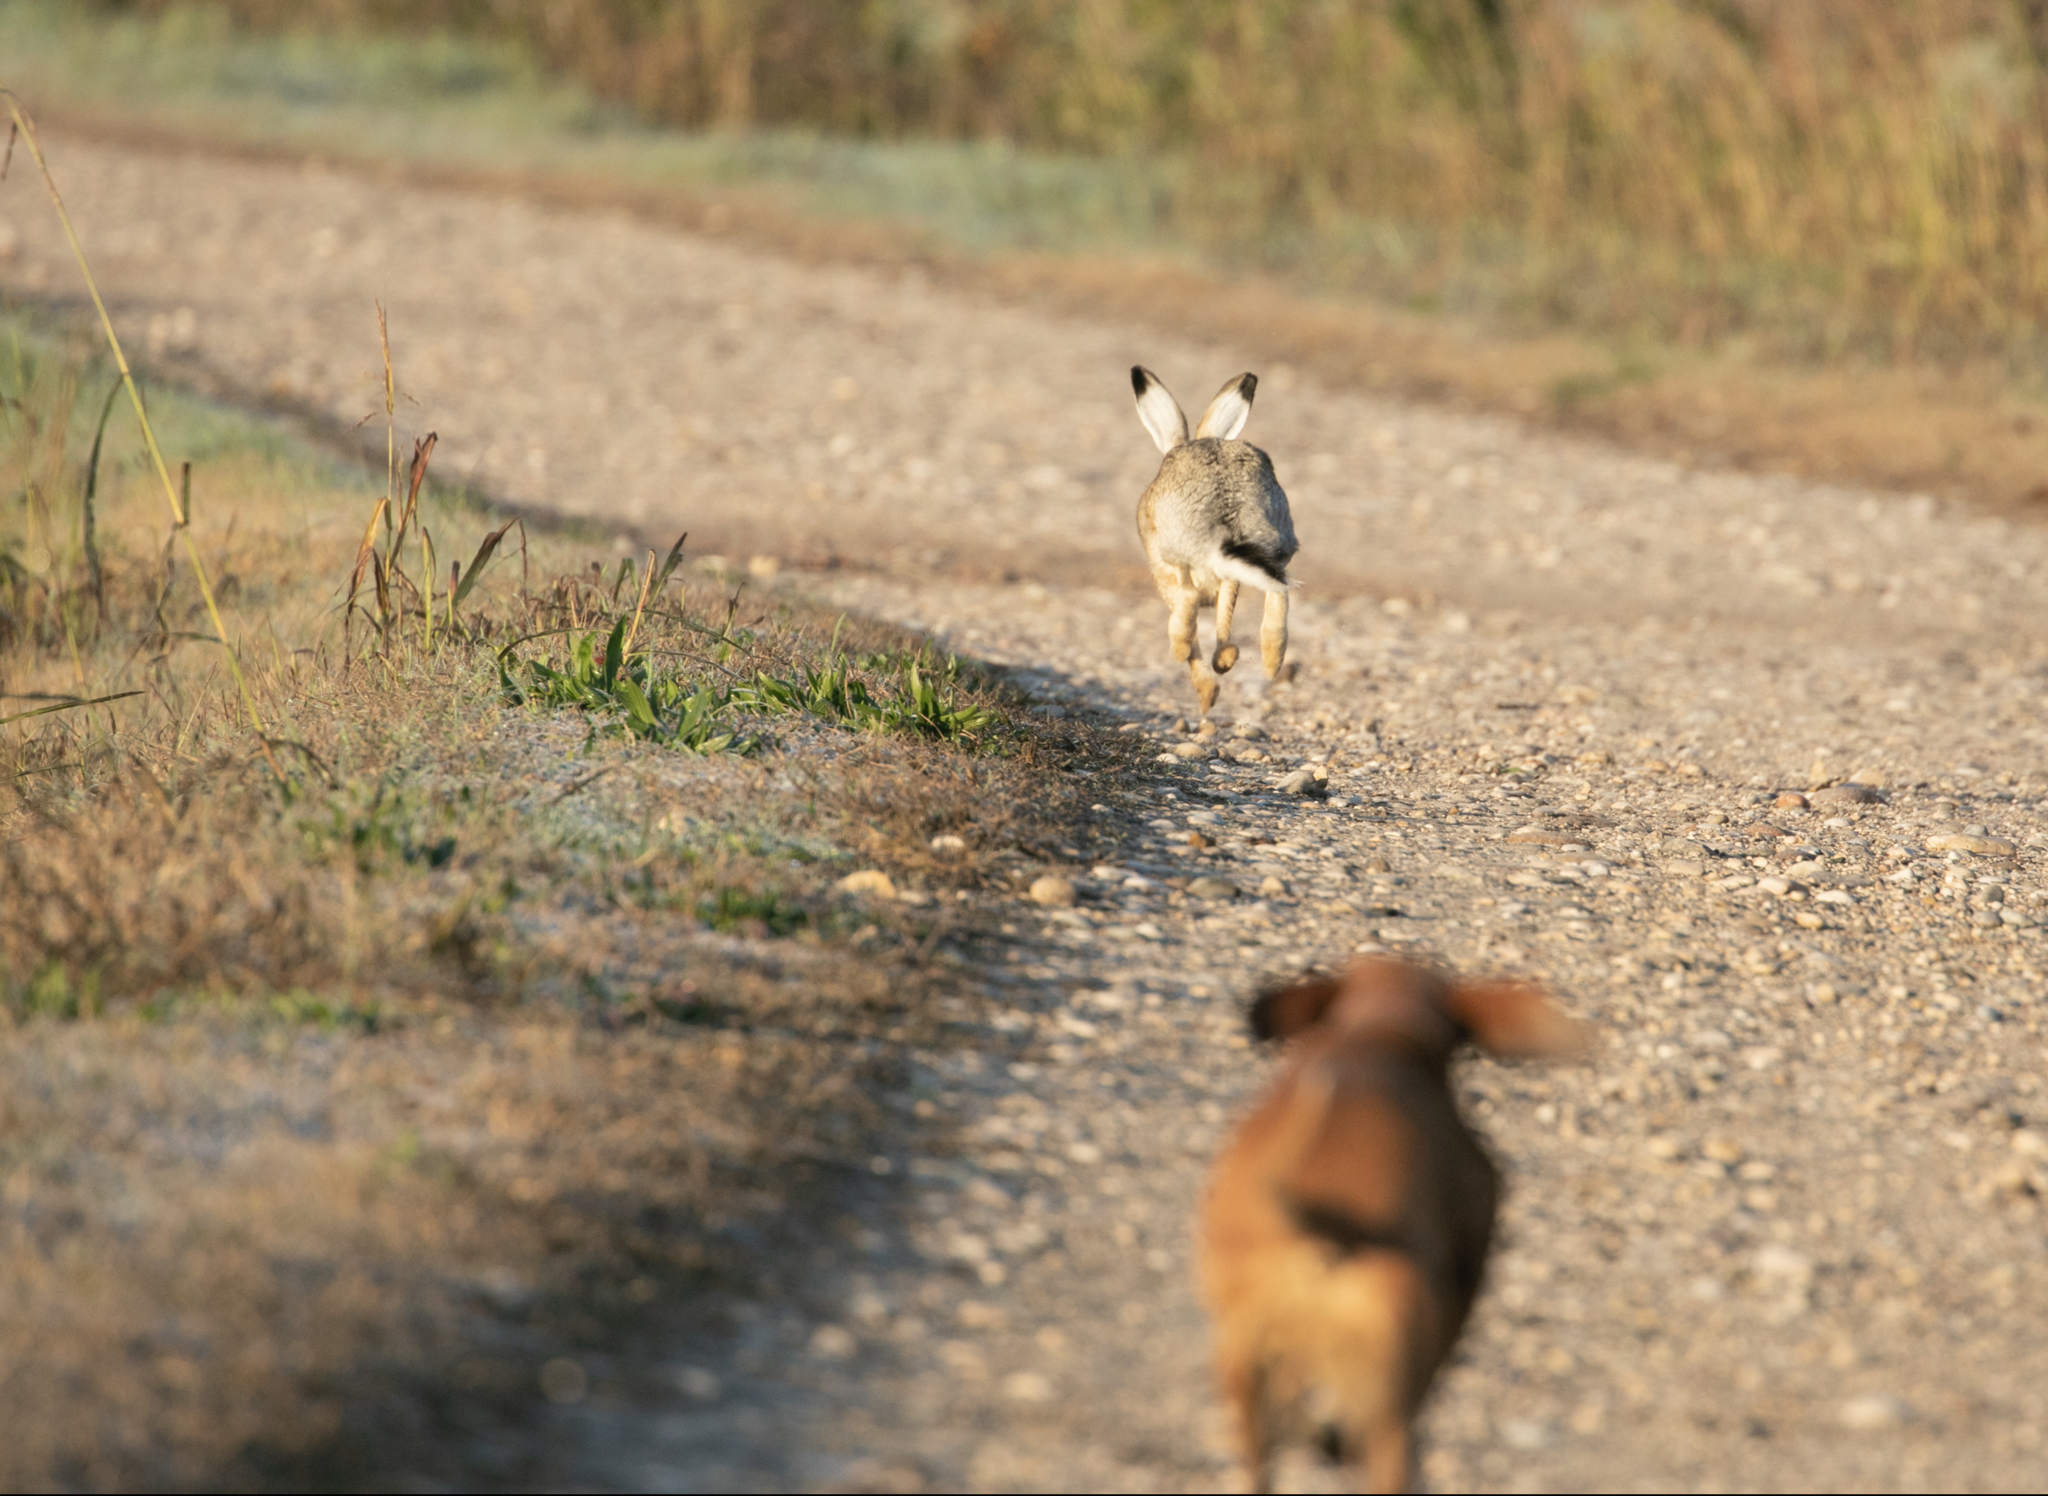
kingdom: Animalia
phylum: Chordata
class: Mammalia
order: Lagomorpha
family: Leporidae
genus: Lepus
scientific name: Lepus europaeus
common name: European hare
